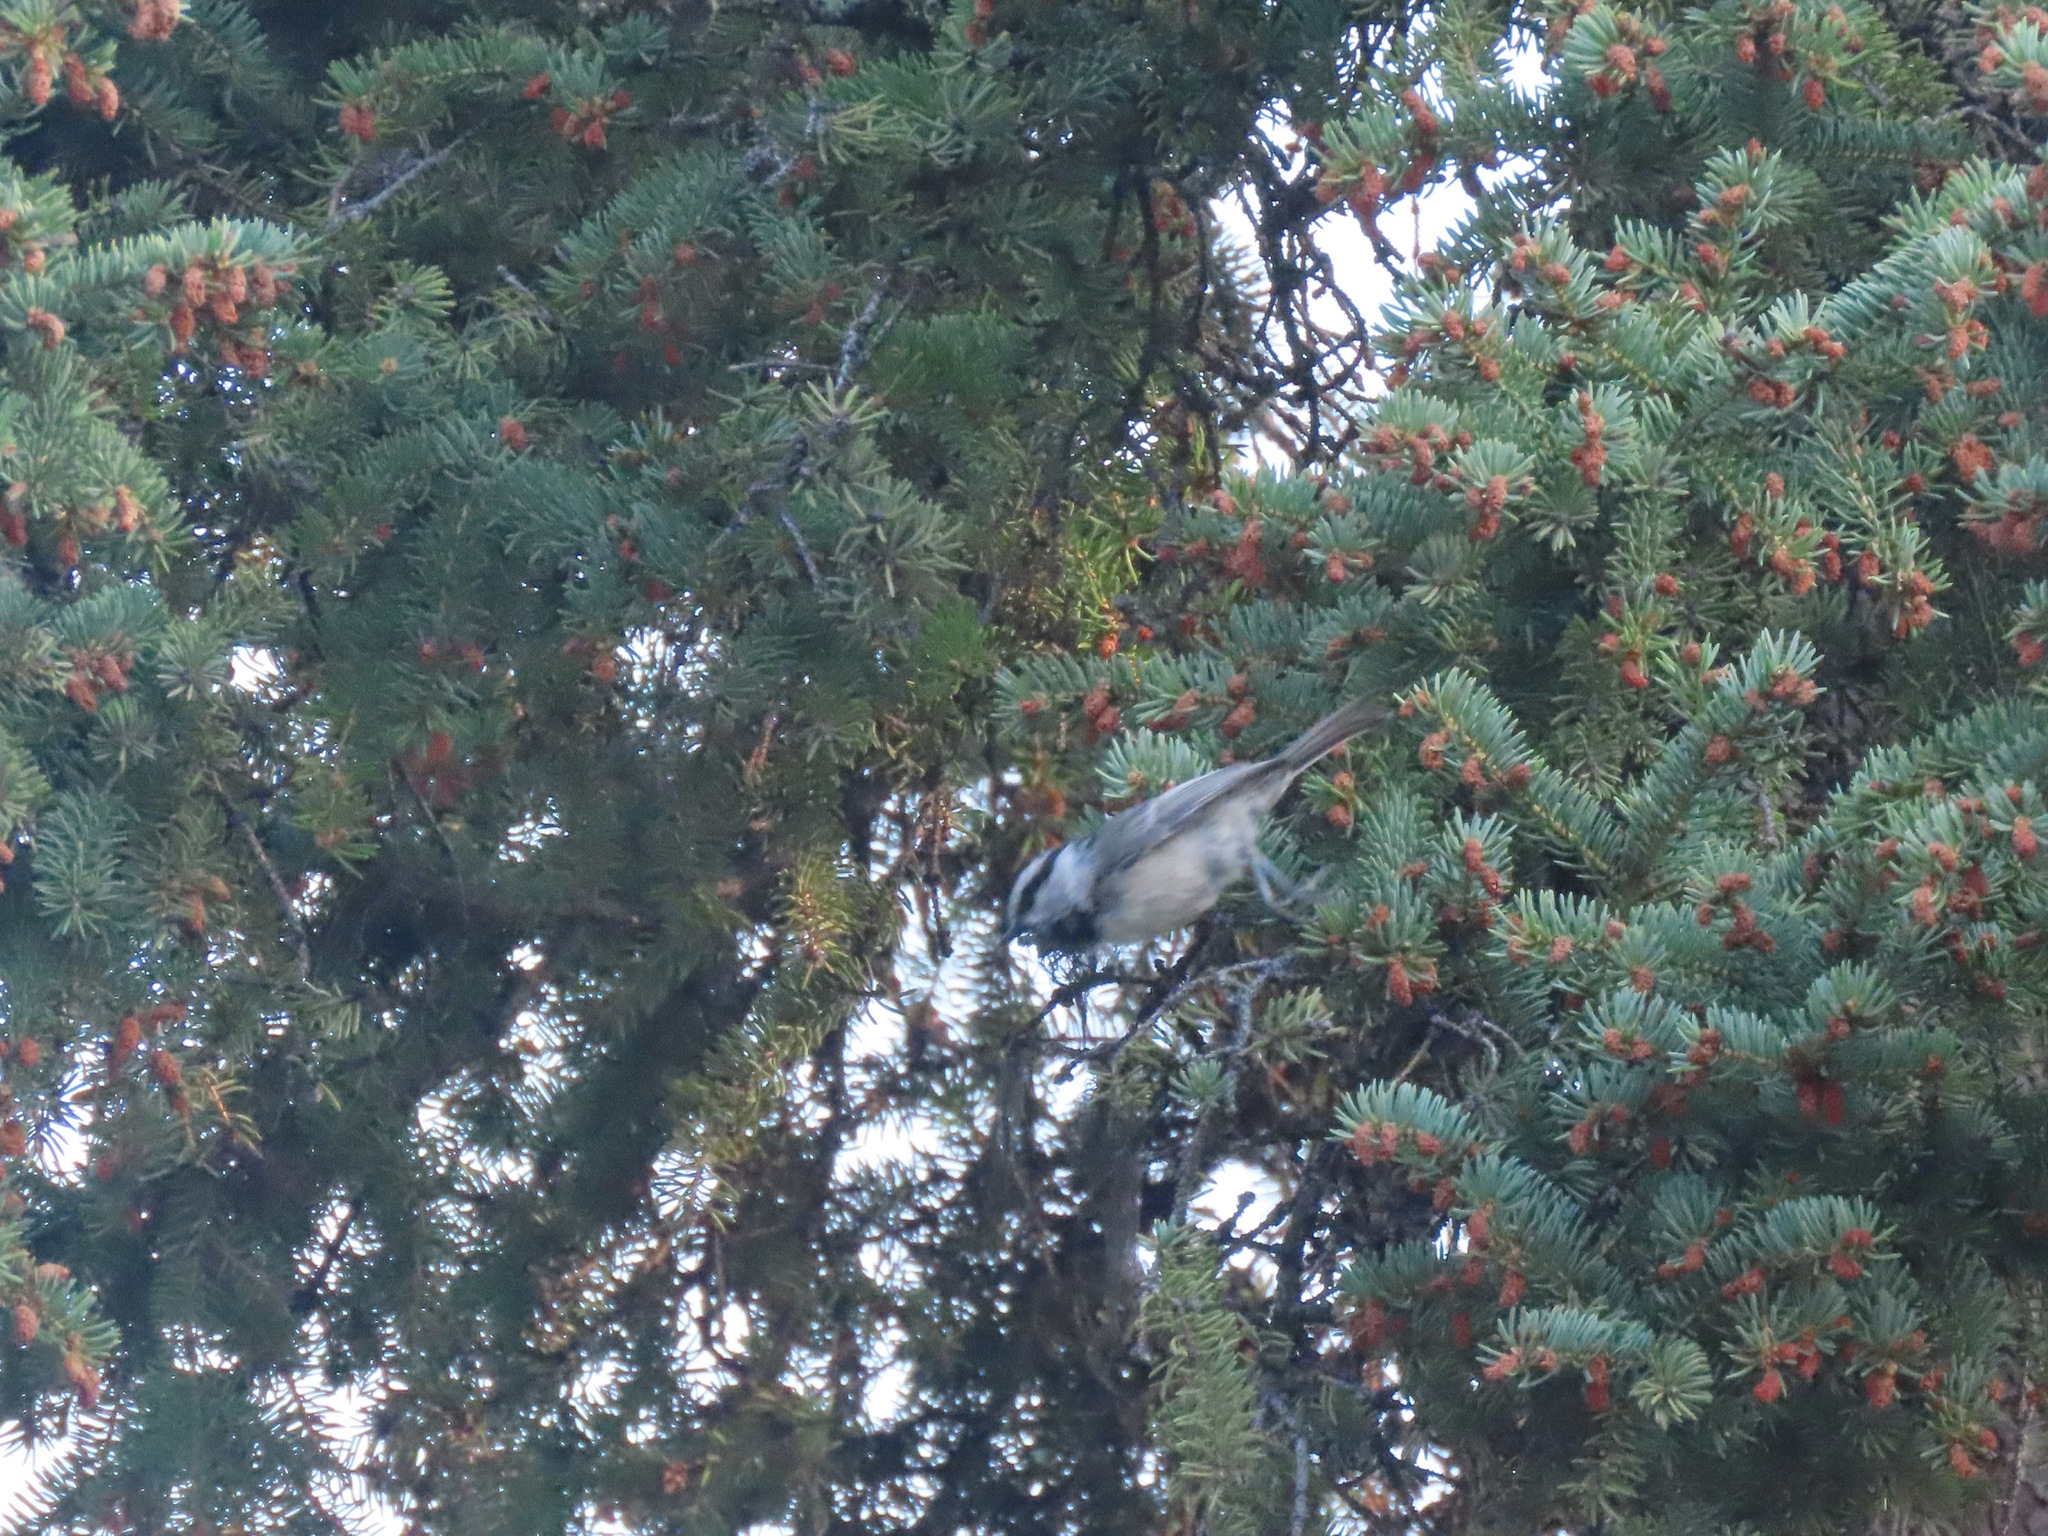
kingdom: Animalia
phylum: Chordata
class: Aves
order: Passeriformes
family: Paridae
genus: Poecile
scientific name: Poecile gambeli
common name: Mountain chickadee
